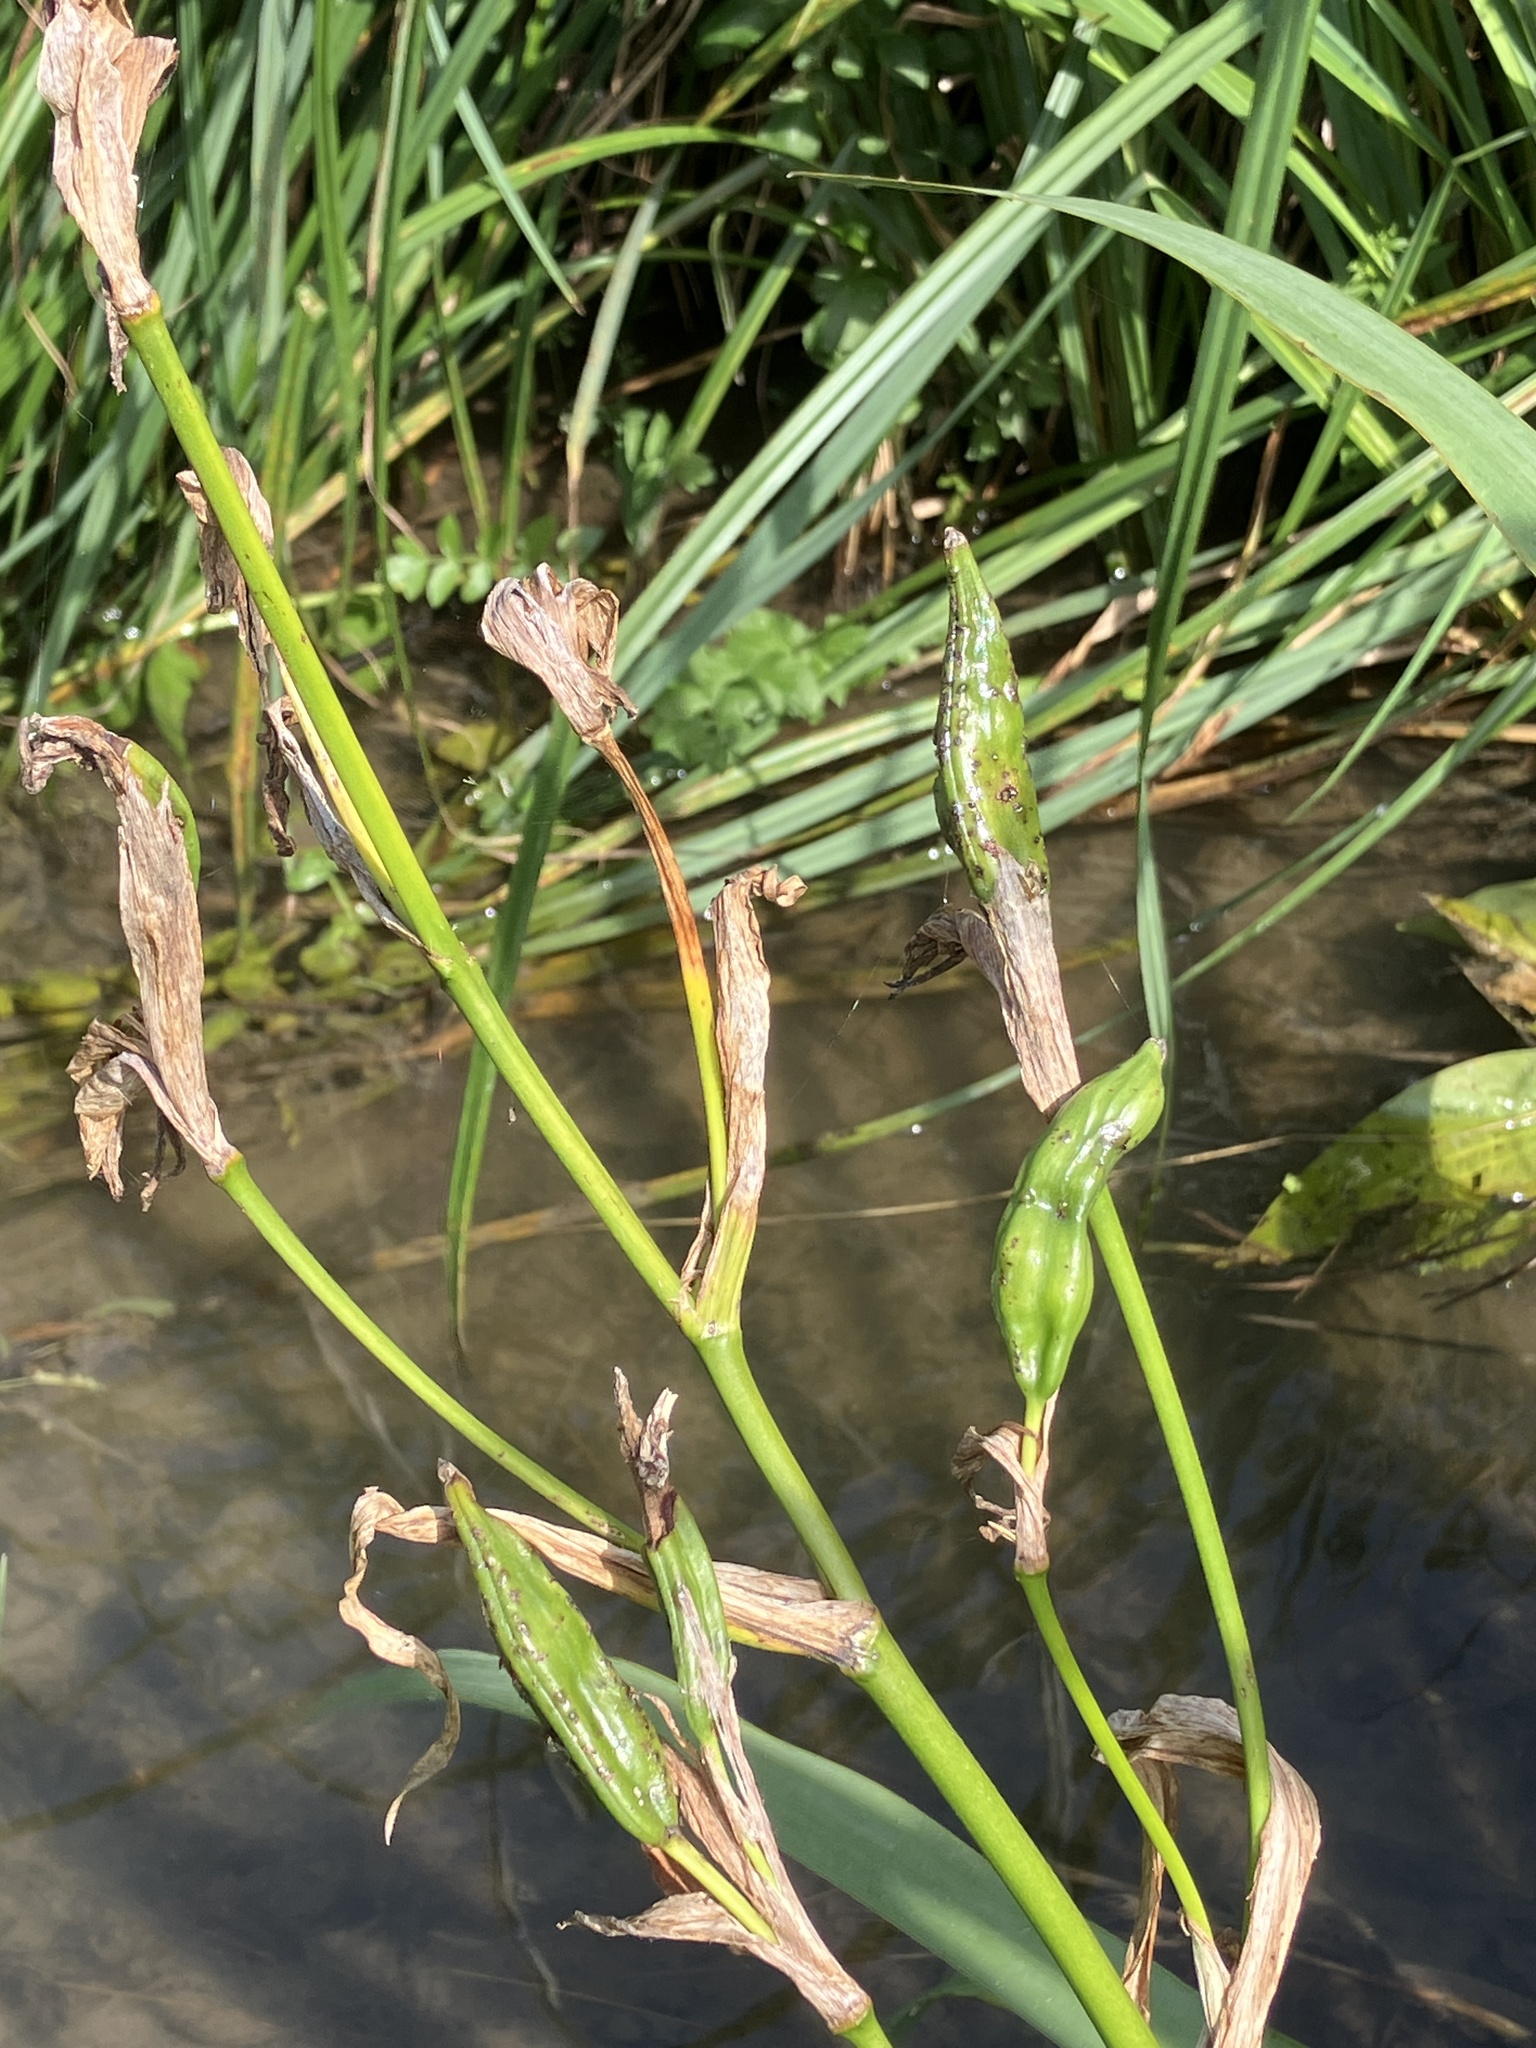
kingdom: Plantae
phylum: Tracheophyta
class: Liliopsida
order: Asparagales
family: Iridaceae
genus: Iris
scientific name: Iris pseudacorus
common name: Yellow flag
